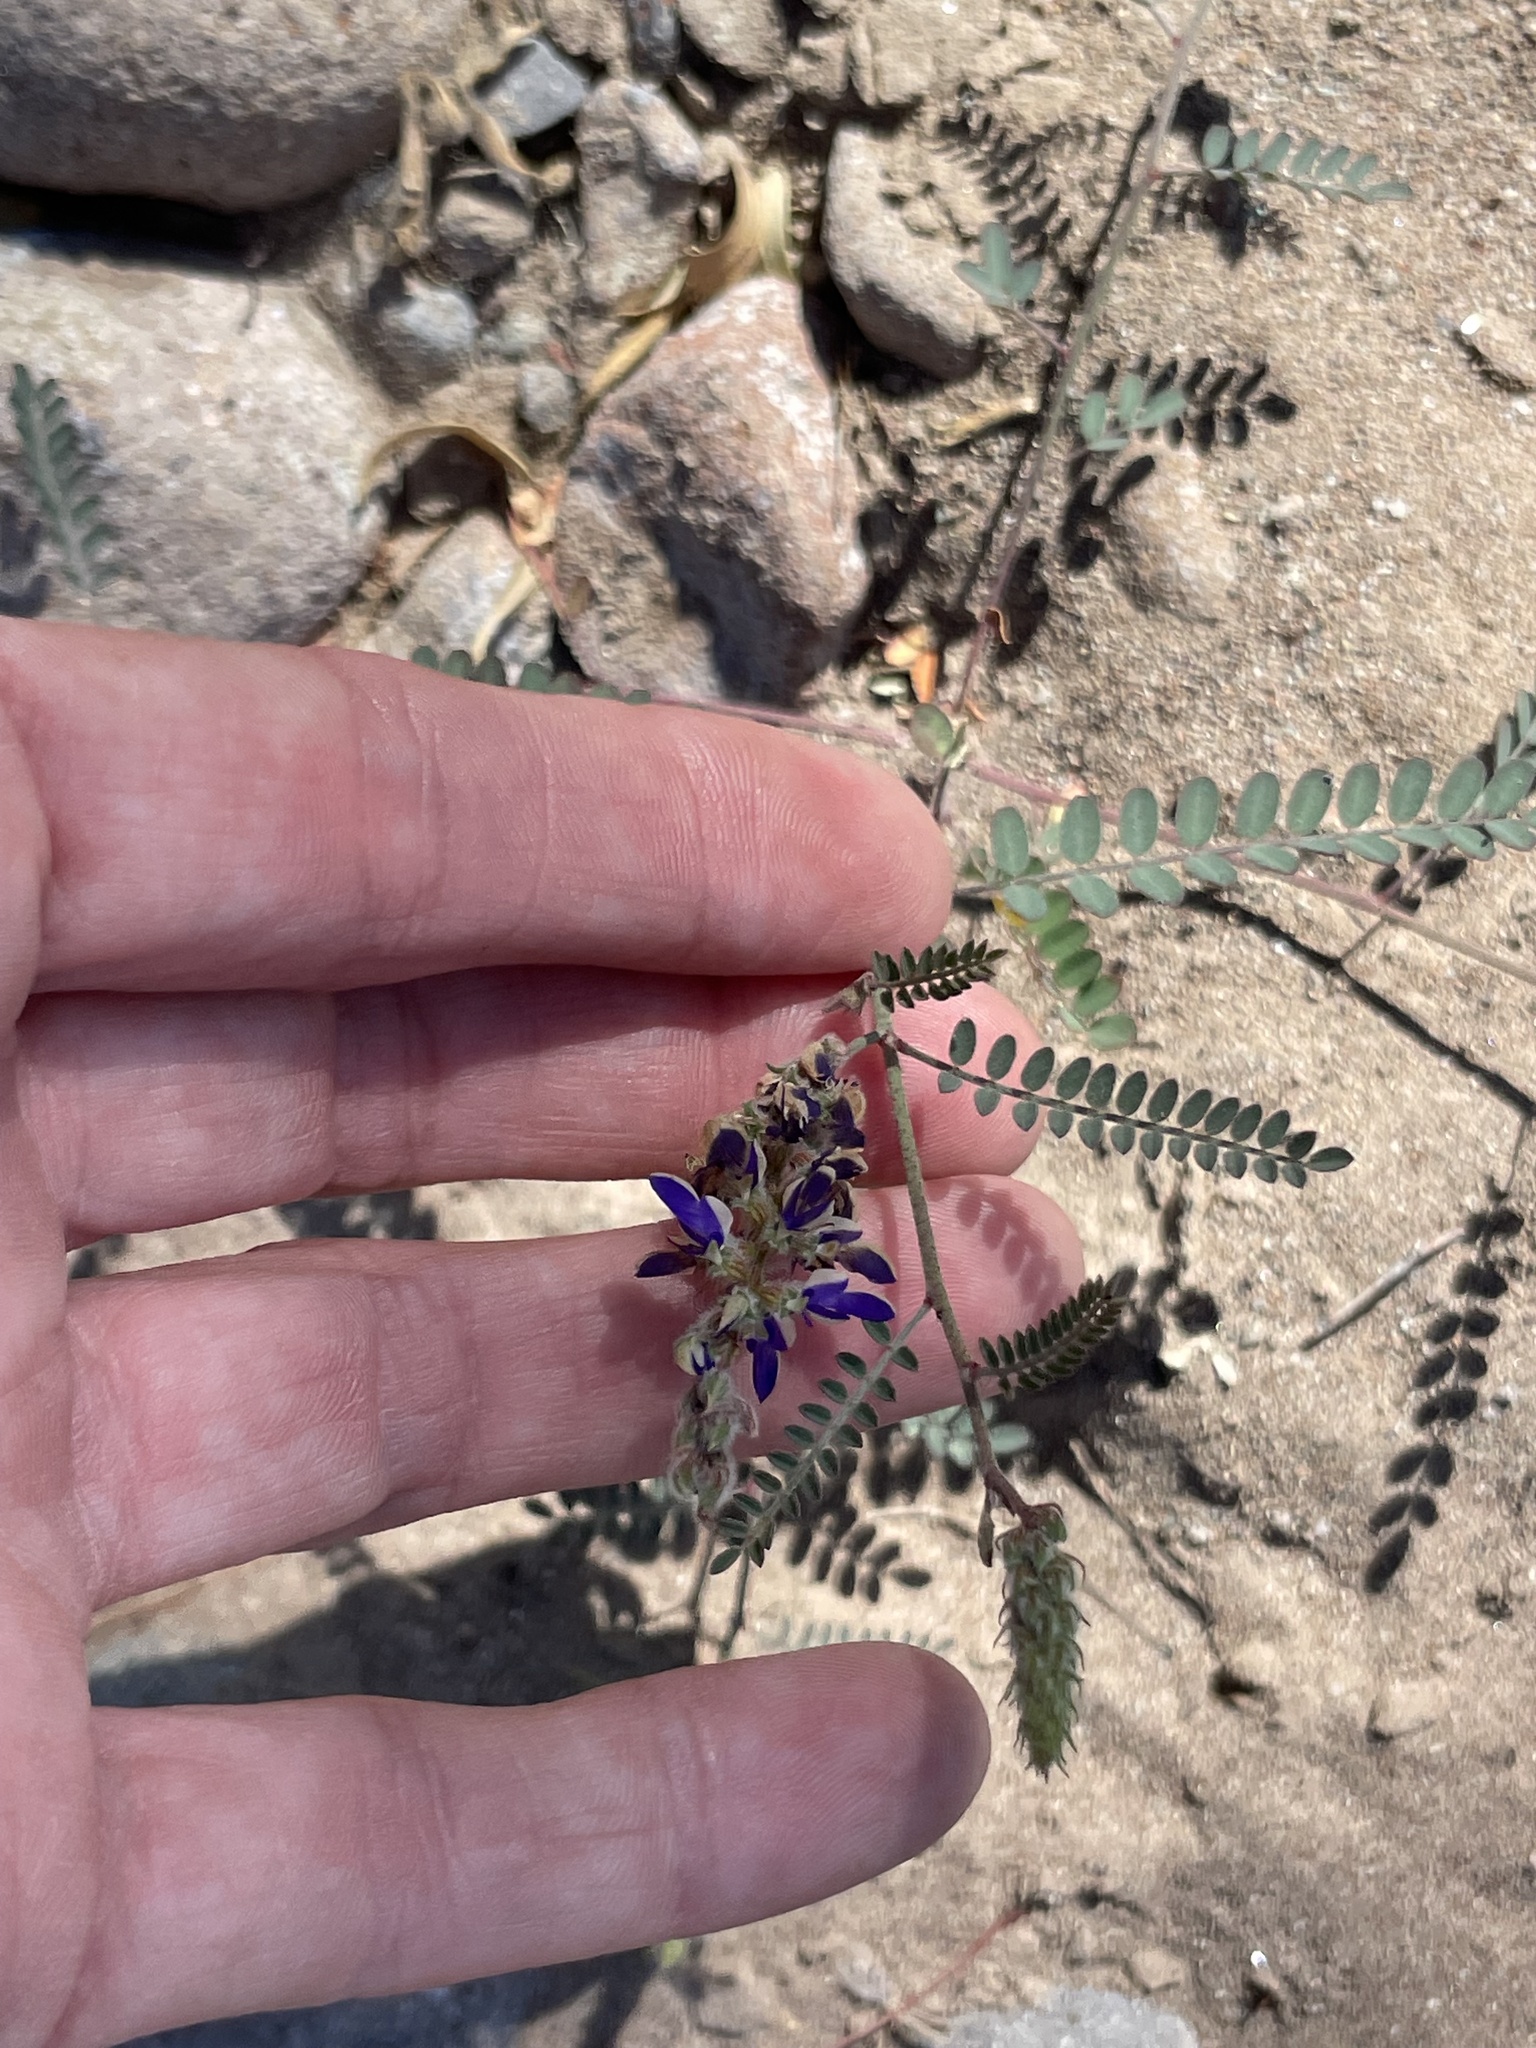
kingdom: Plantae
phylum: Tracheophyta
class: Magnoliopsida
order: Fabales
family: Fabaceae
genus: Marina
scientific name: Marina parryi
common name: Parry's marina
